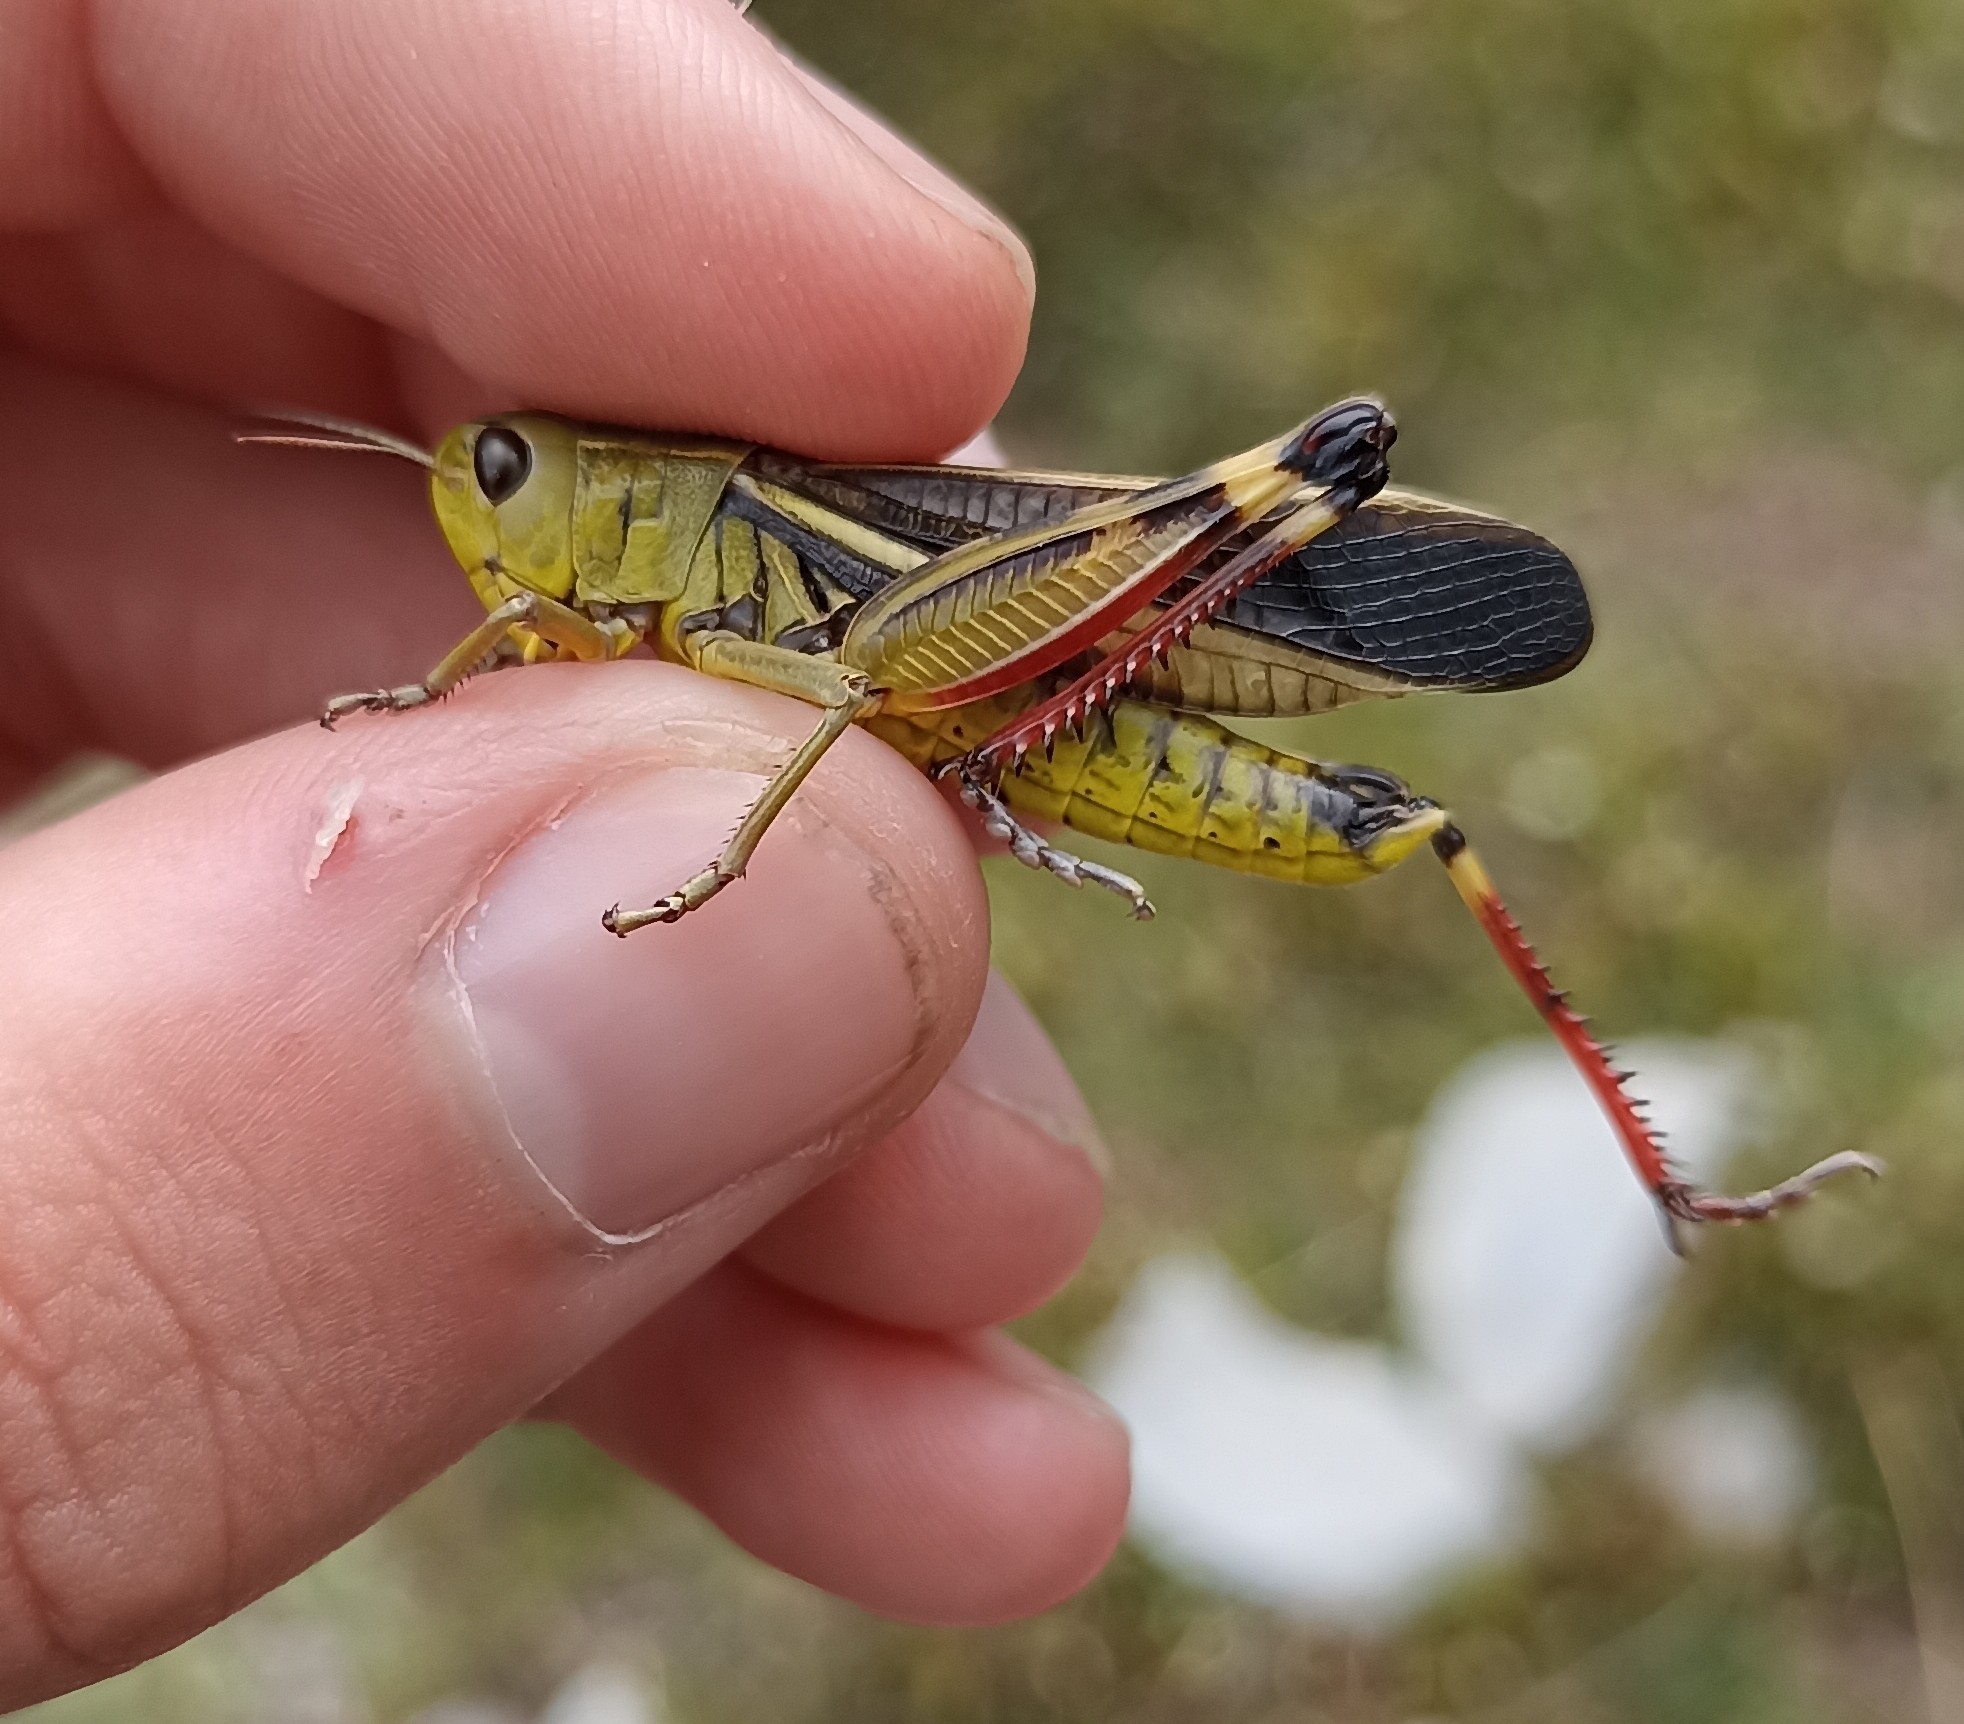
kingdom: Animalia
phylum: Arthropoda
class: Insecta
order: Orthoptera
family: Acrididae
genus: Arcyptera
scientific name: Arcyptera fusca
